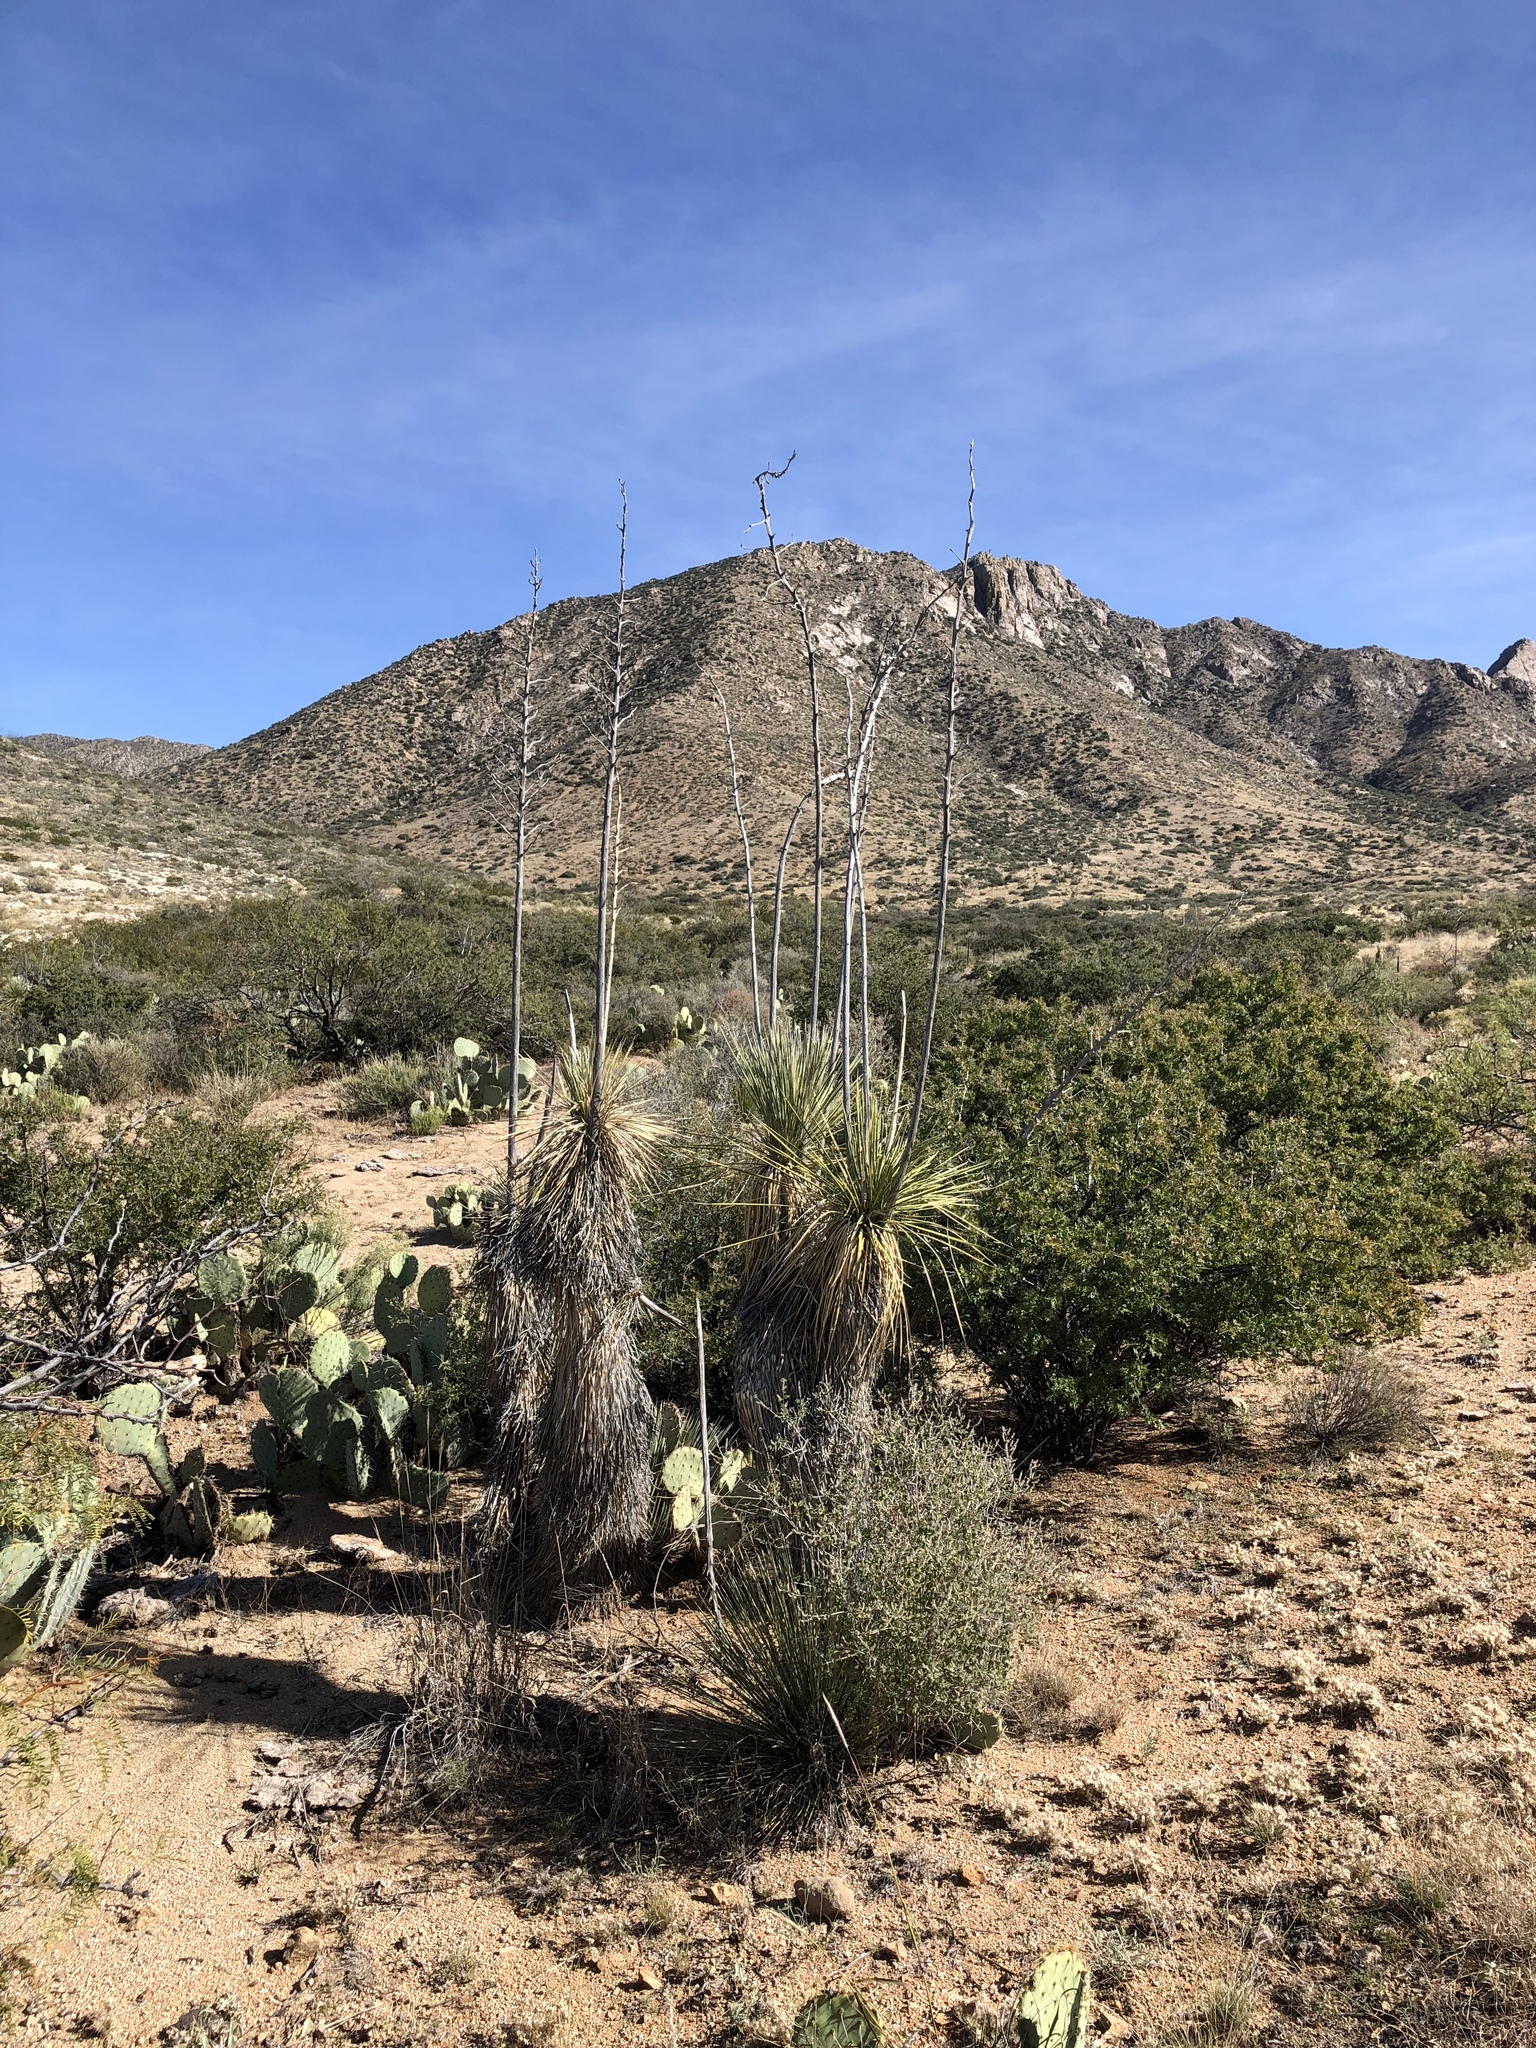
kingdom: Plantae
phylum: Tracheophyta
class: Liliopsida
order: Asparagales
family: Asparagaceae
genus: Yucca
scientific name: Yucca elata
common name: Palmella
